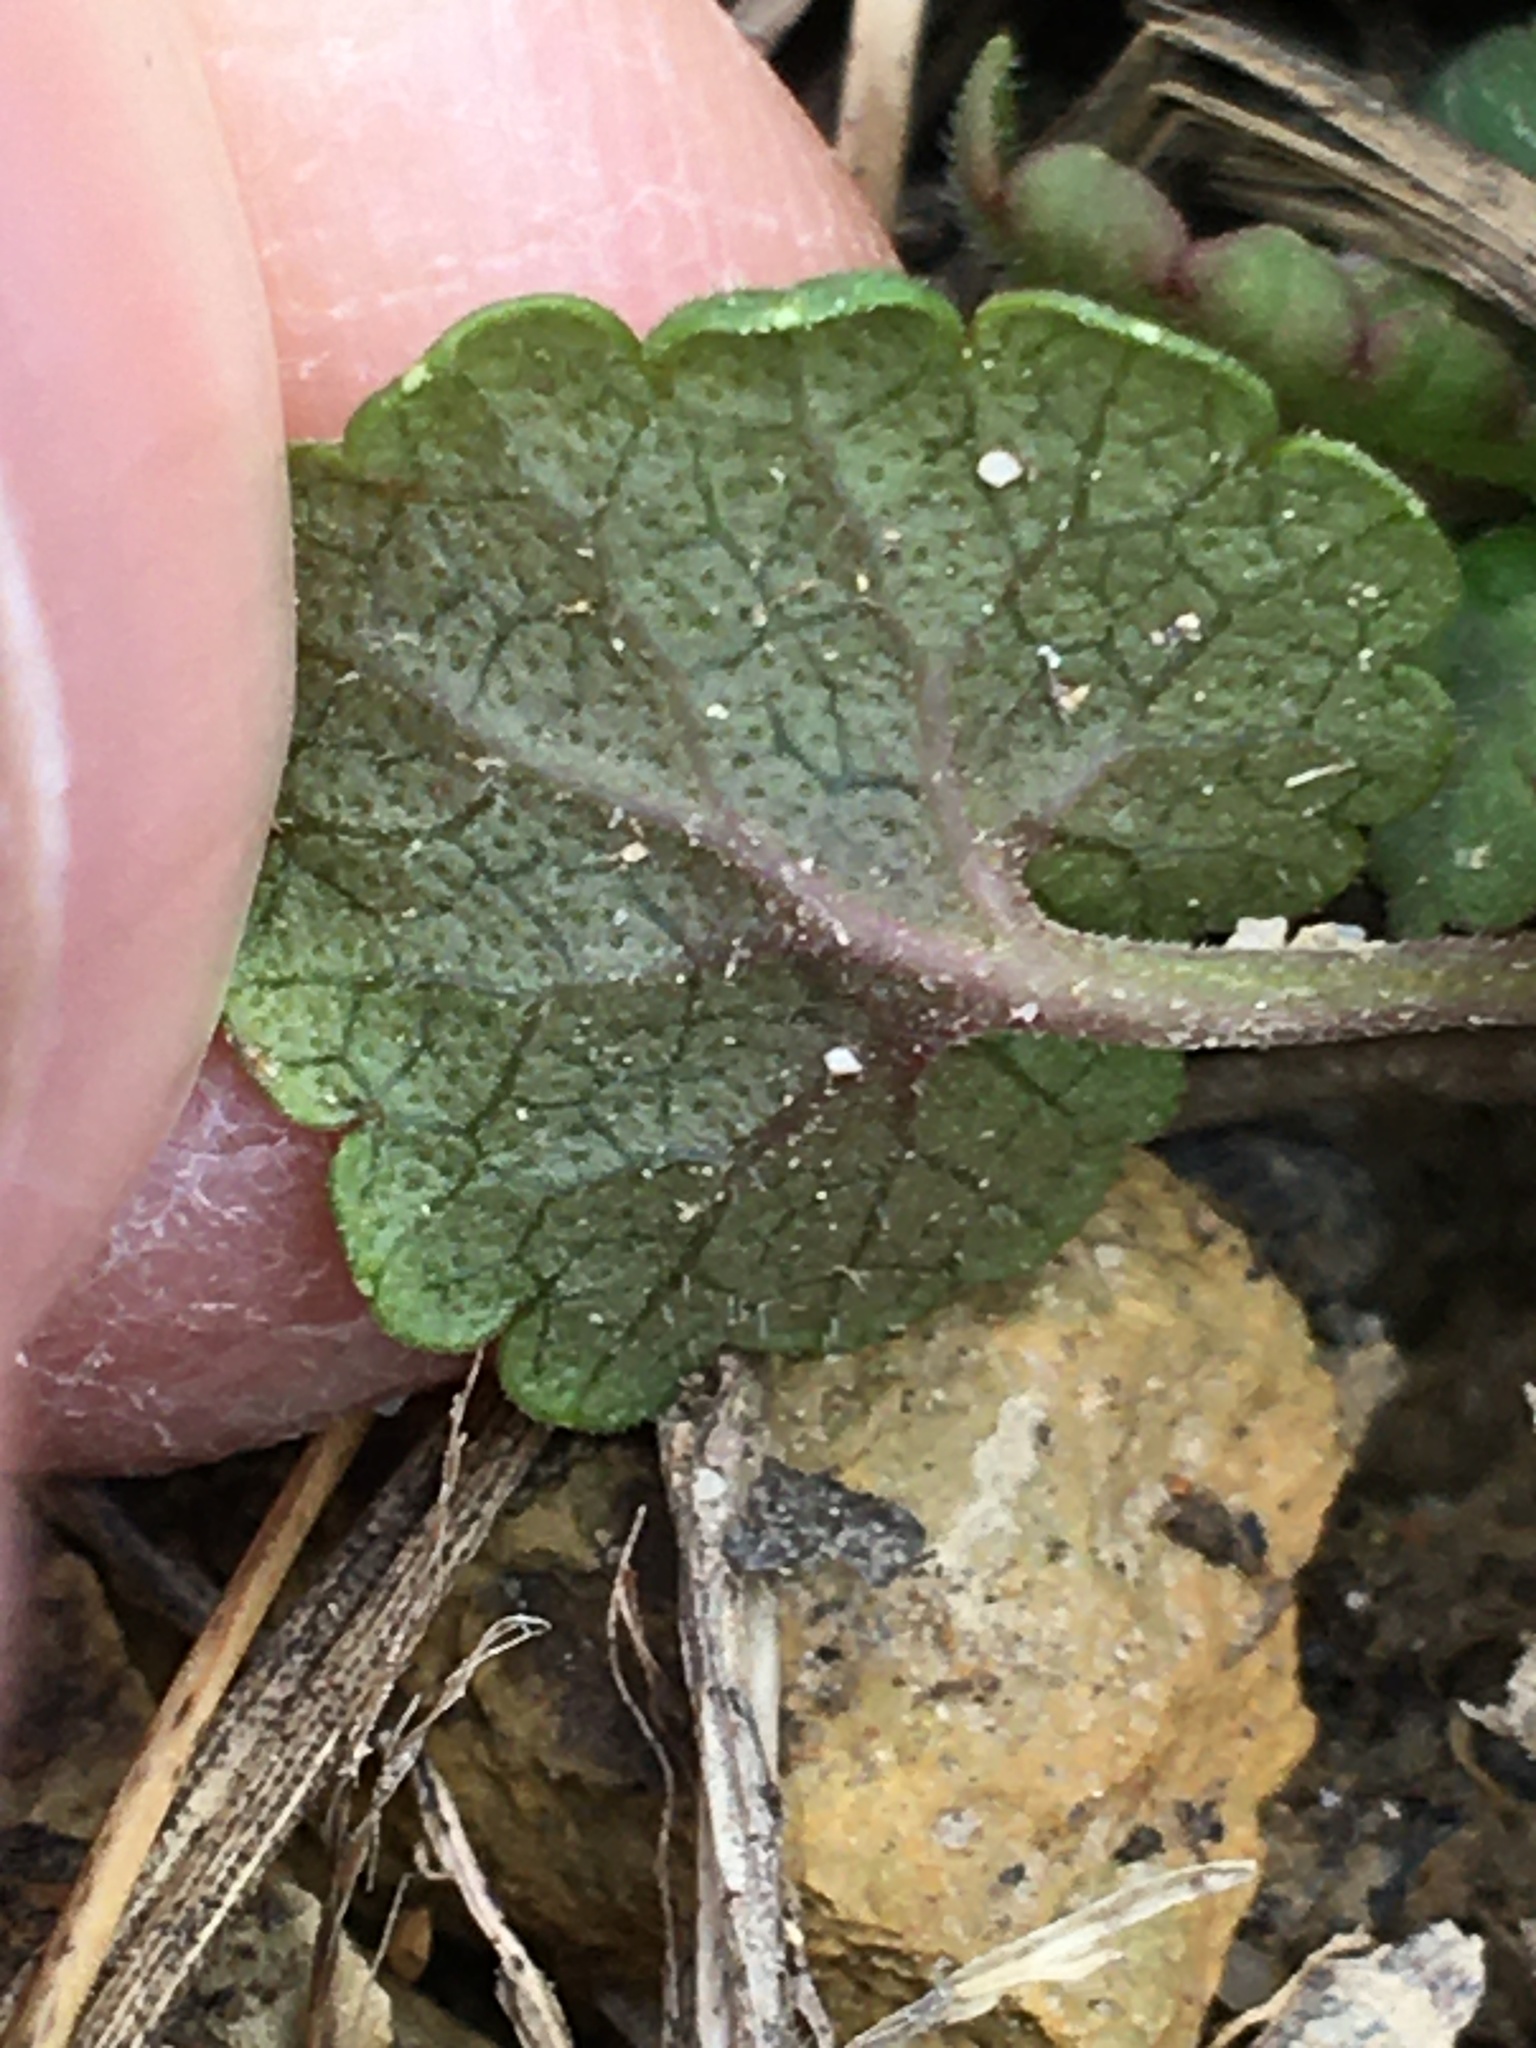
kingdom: Plantae
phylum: Tracheophyta
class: Magnoliopsida
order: Lamiales
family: Lamiaceae
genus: Glechoma
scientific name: Glechoma hederacea
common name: Ground ivy
